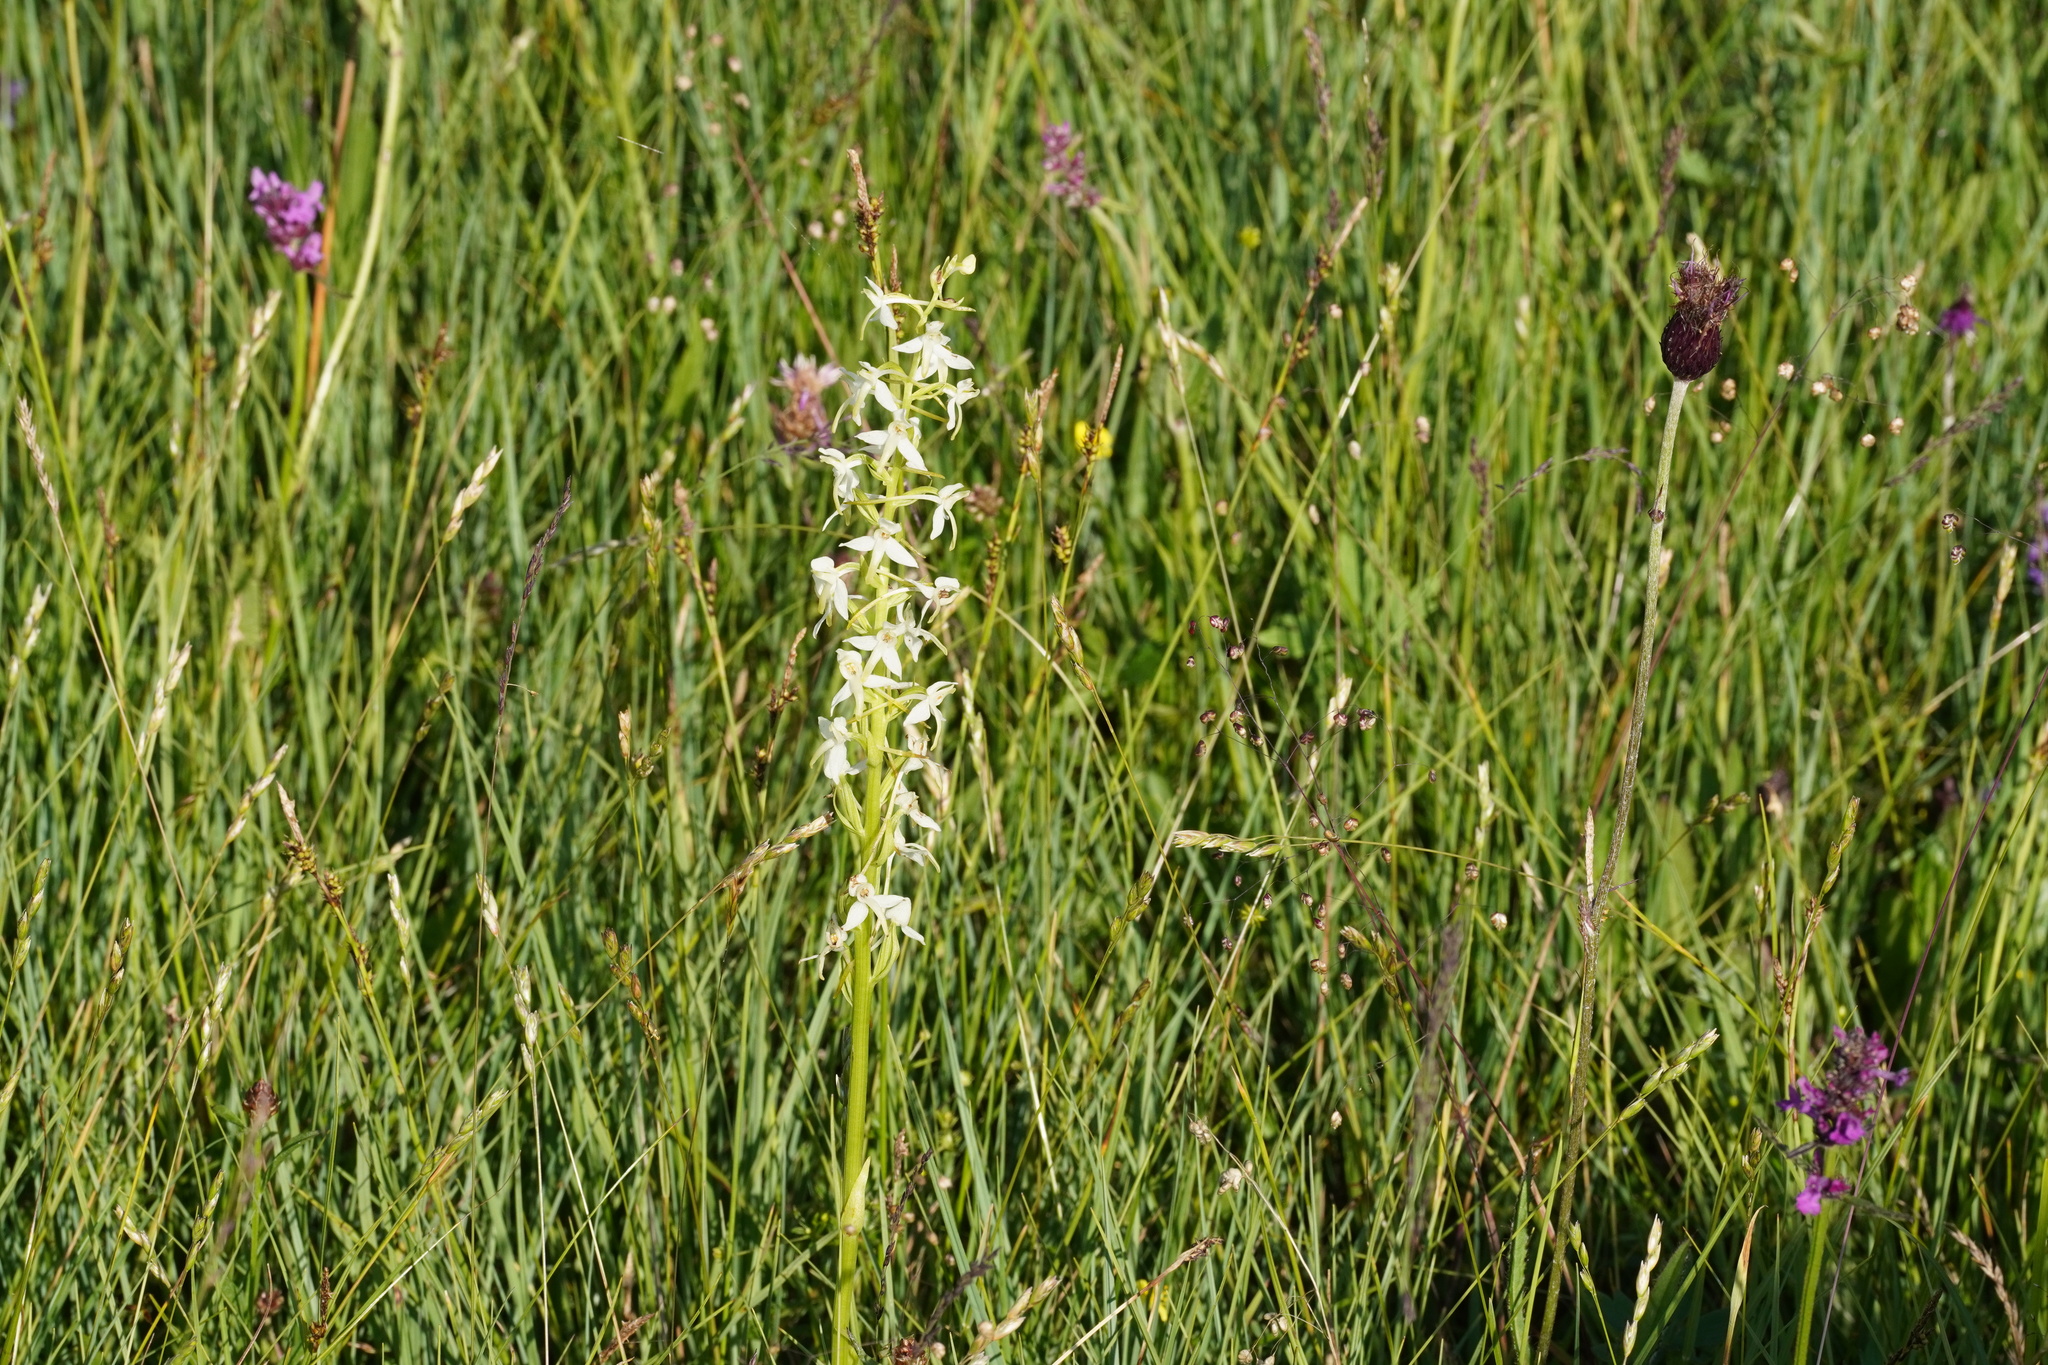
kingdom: Plantae
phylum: Tracheophyta
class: Liliopsida
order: Asparagales
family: Orchidaceae
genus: Platanthera
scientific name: Platanthera bifolia
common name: Lesser butterfly-orchid
